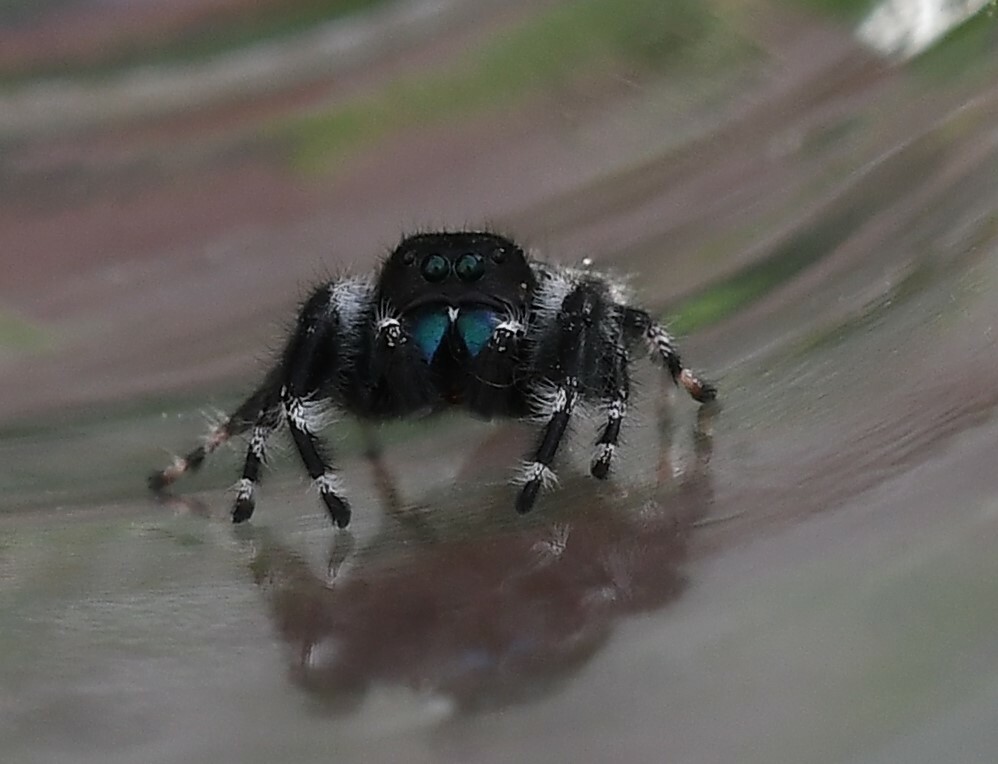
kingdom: Animalia
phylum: Arthropoda
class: Arachnida
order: Araneae
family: Salticidae
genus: Phidippus
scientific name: Phidippus audax
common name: Bold jumper
